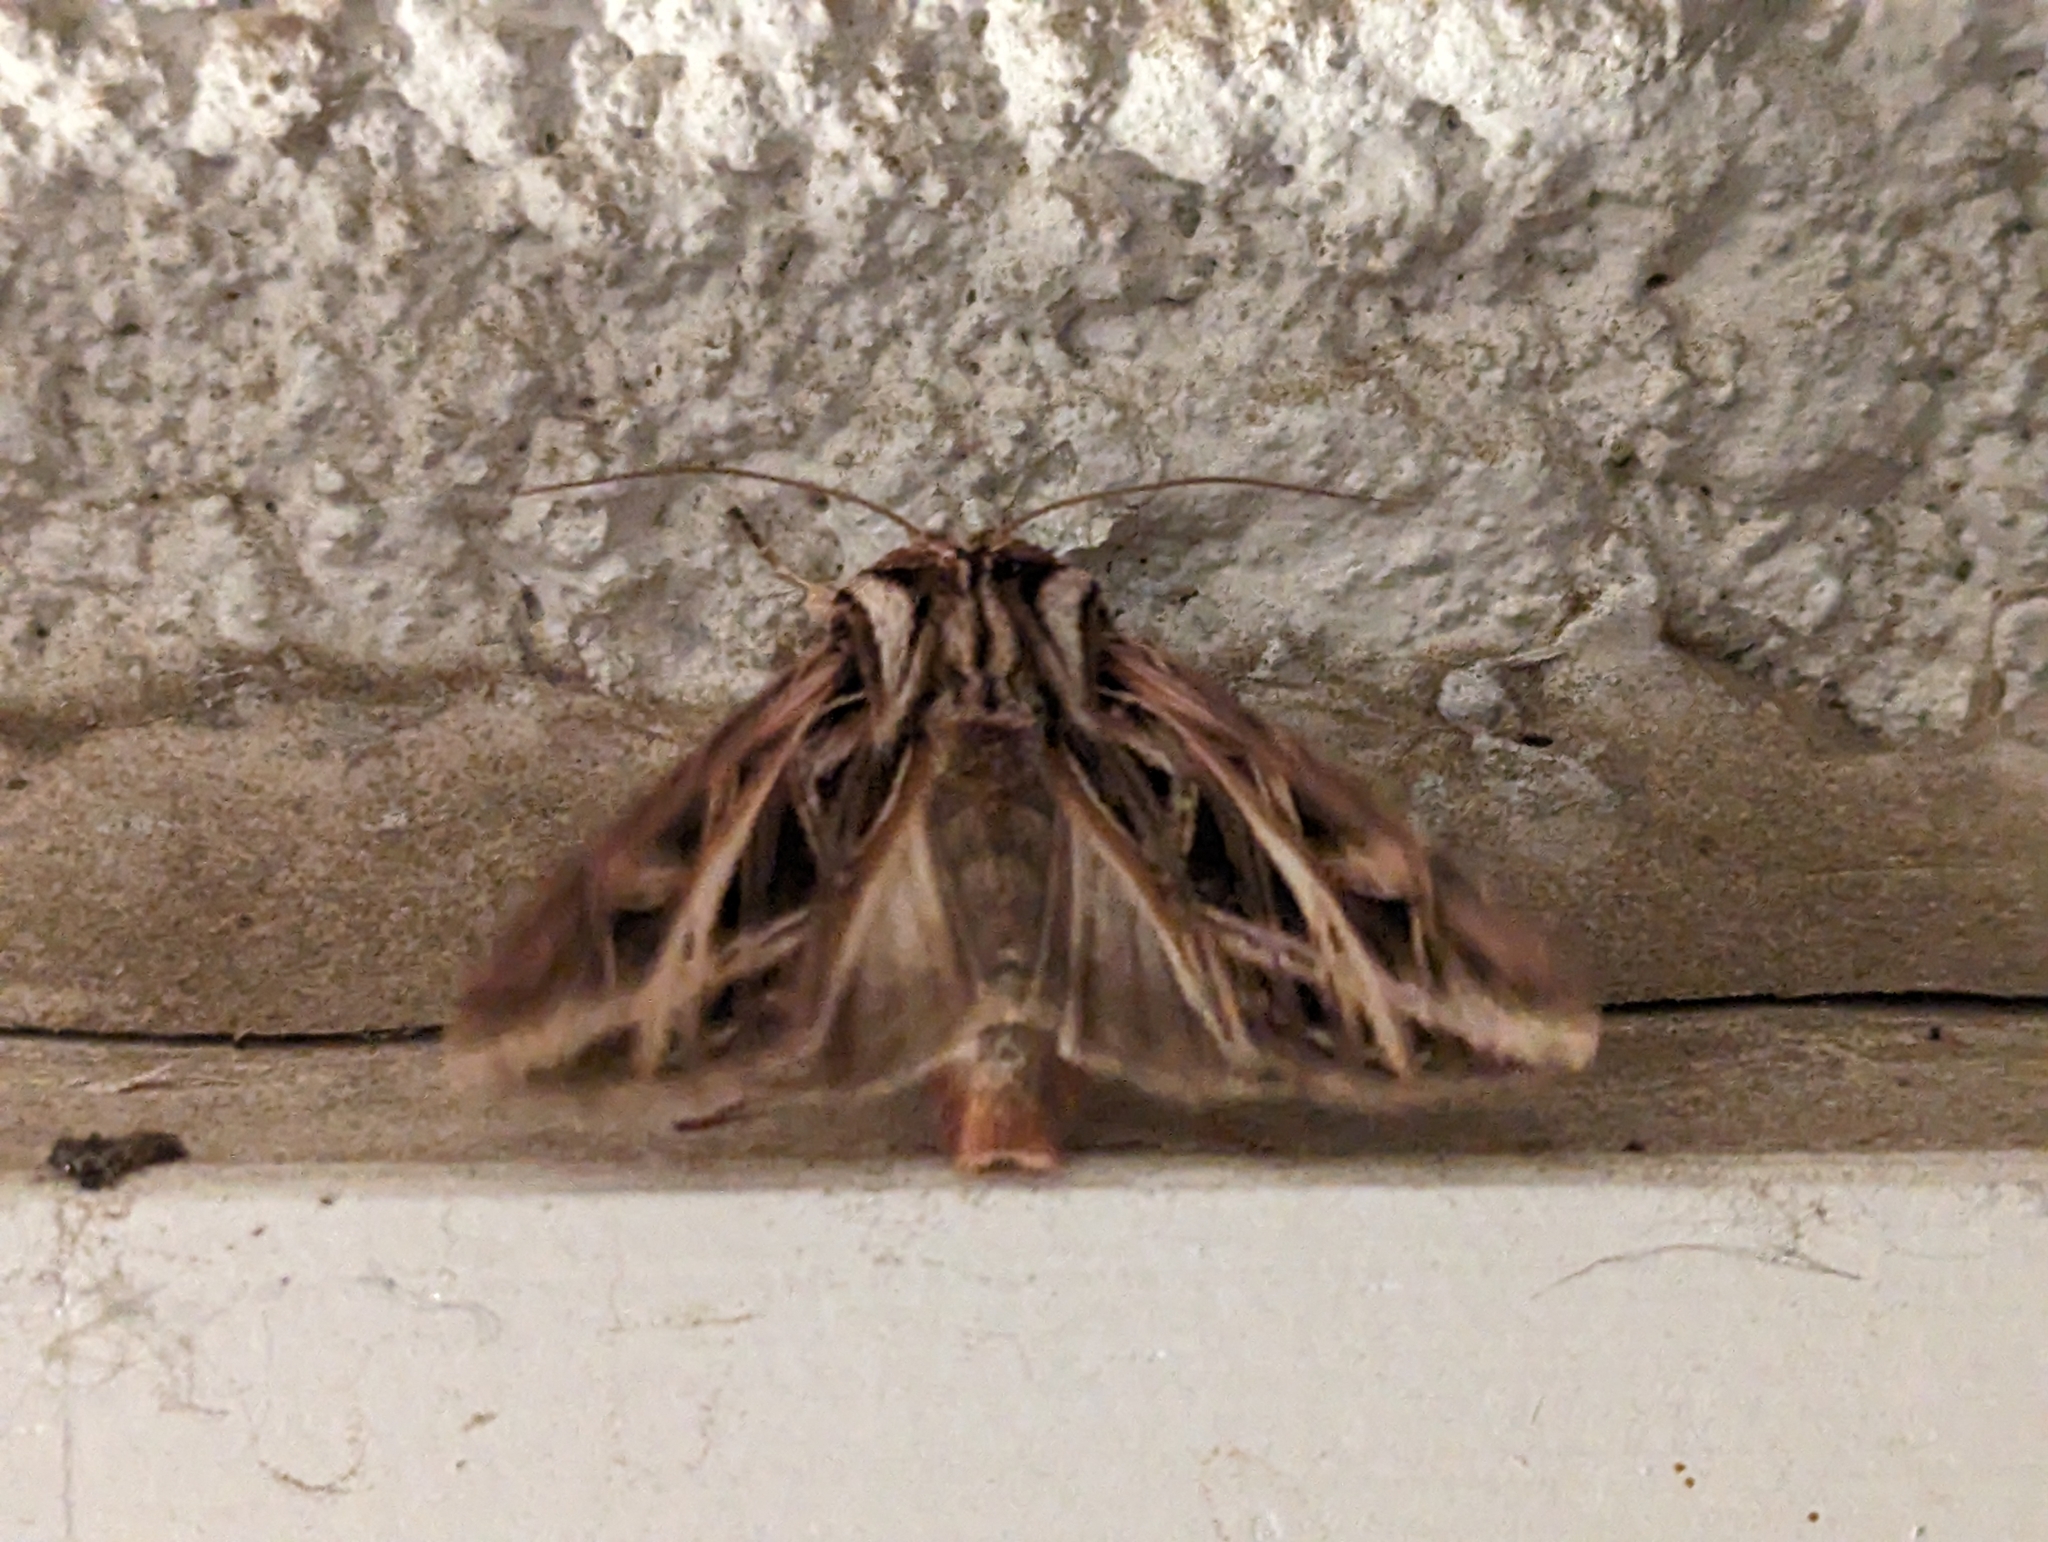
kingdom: Animalia
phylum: Arthropoda
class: Insecta
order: Lepidoptera
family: Noctuidae
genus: Dargida
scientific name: Dargida procinctus
